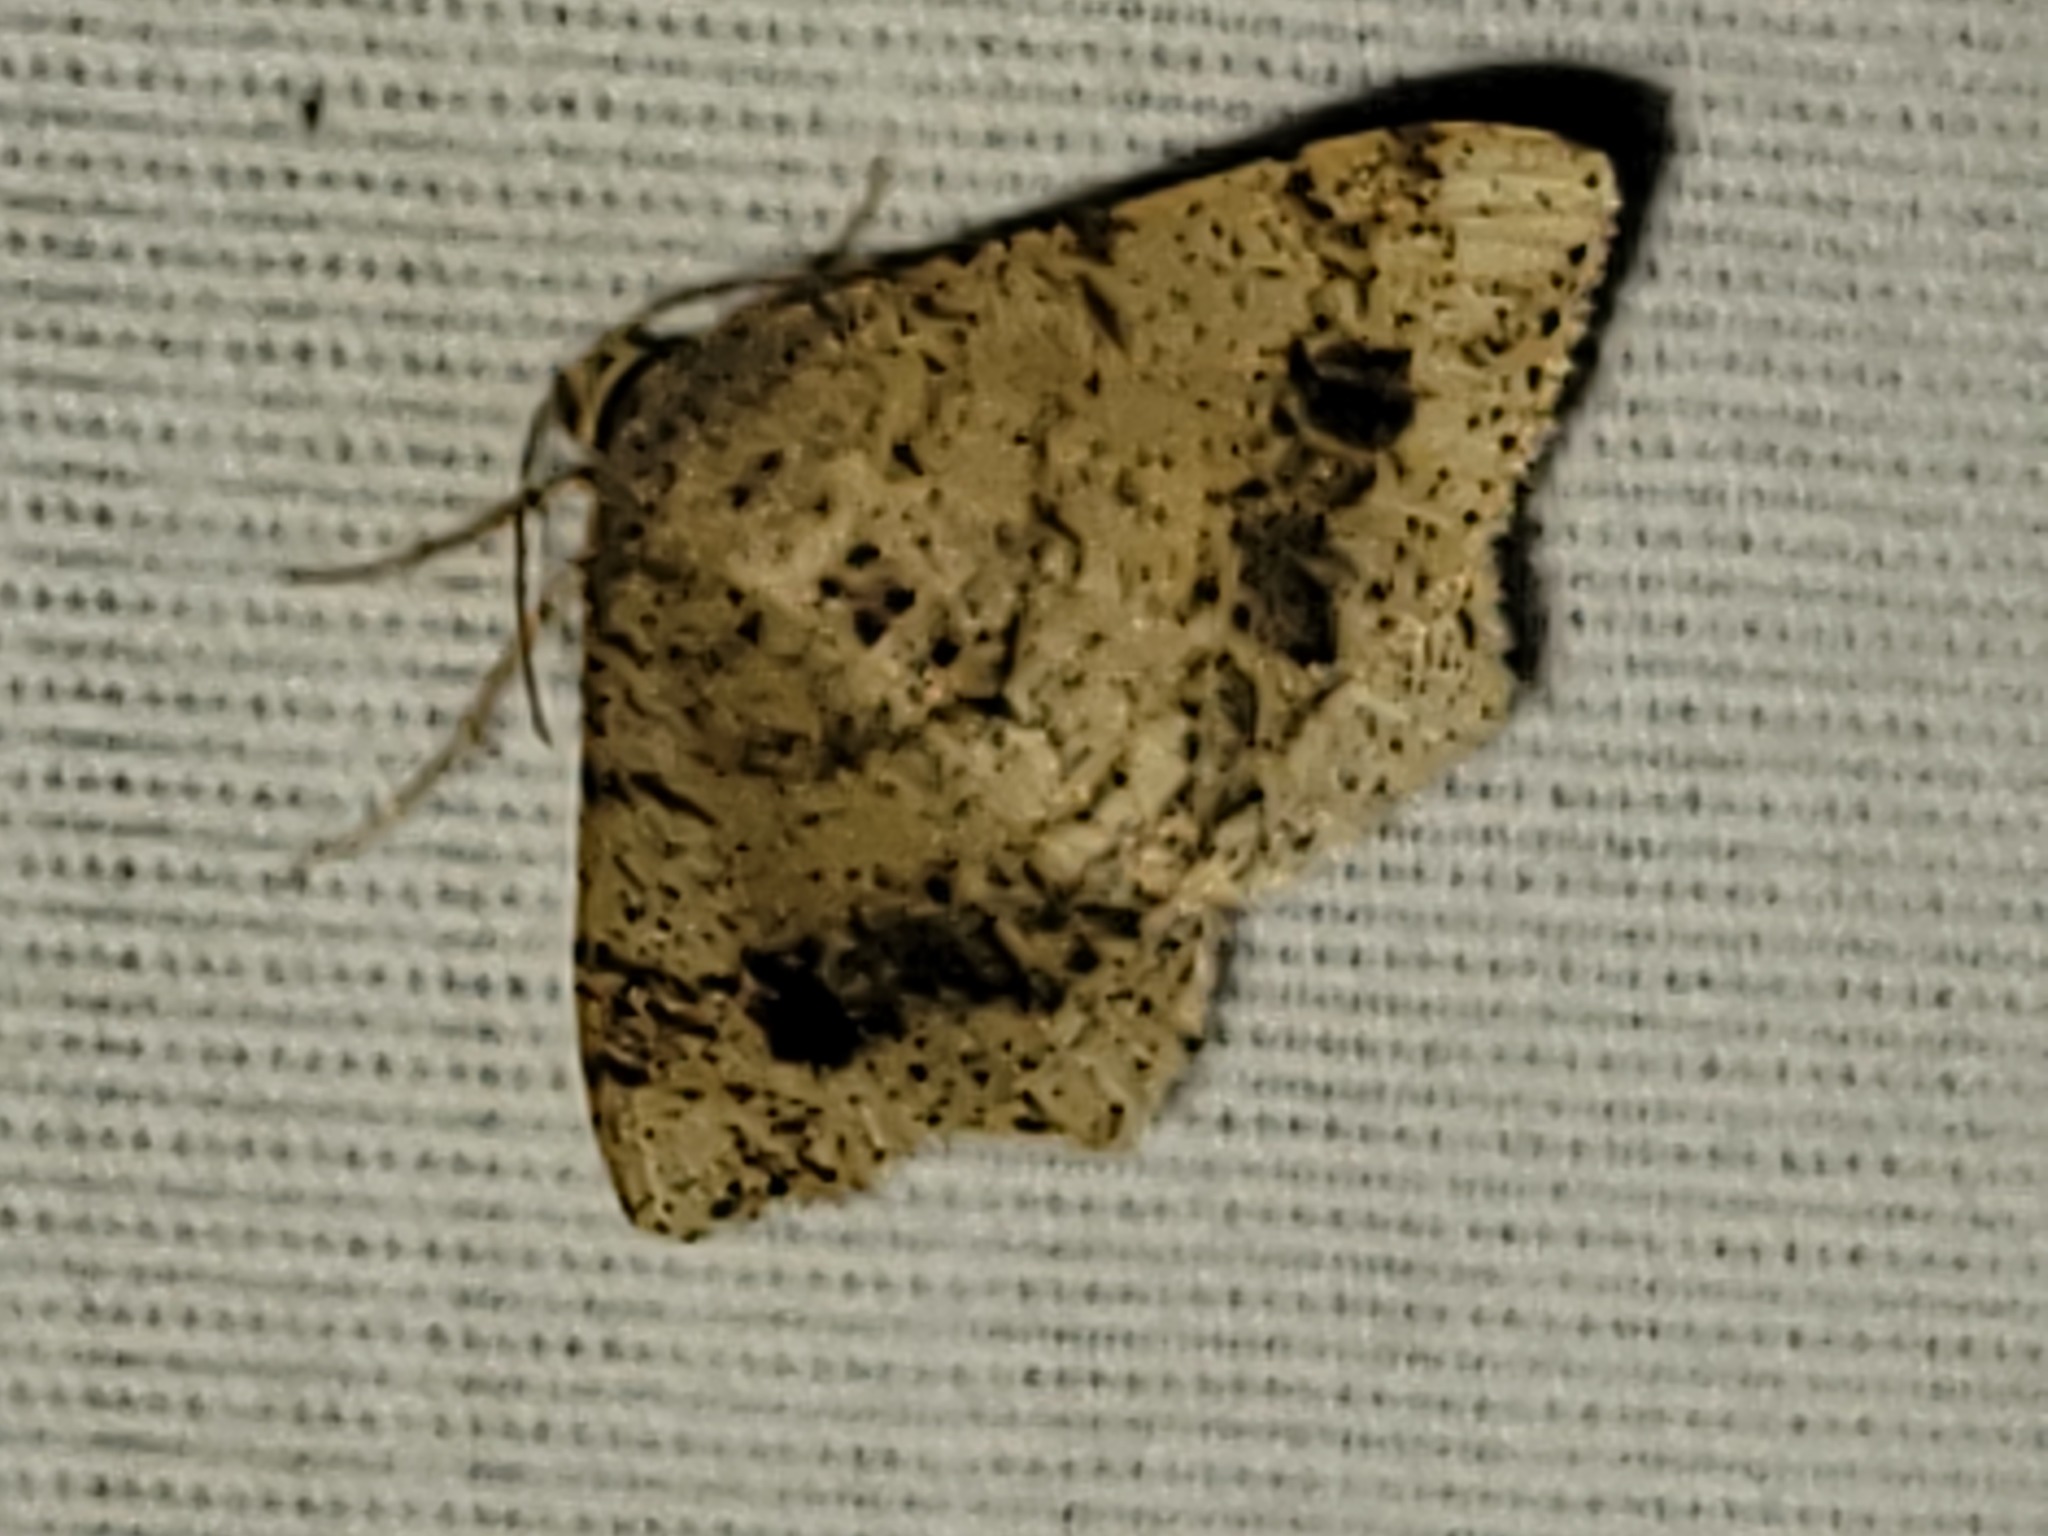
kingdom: Animalia
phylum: Arthropoda
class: Insecta
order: Lepidoptera
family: Geometridae
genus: Macaria
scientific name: Macaria abydata
